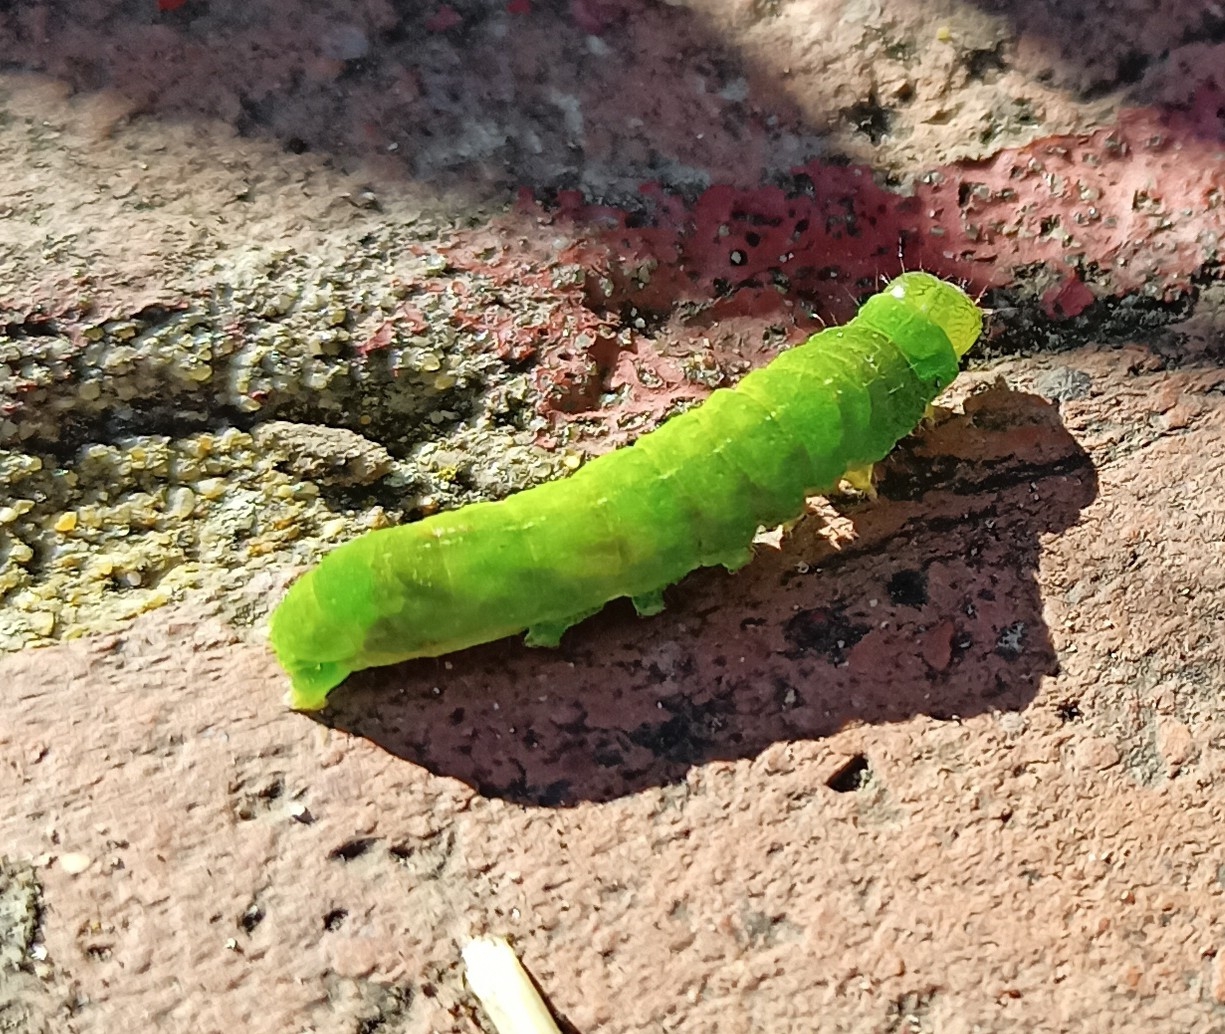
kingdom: Animalia
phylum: Arthropoda
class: Insecta
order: Lepidoptera
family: Noctuidae
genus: Phlogophora
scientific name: Phlogophora meticulosa
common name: Angle shades
